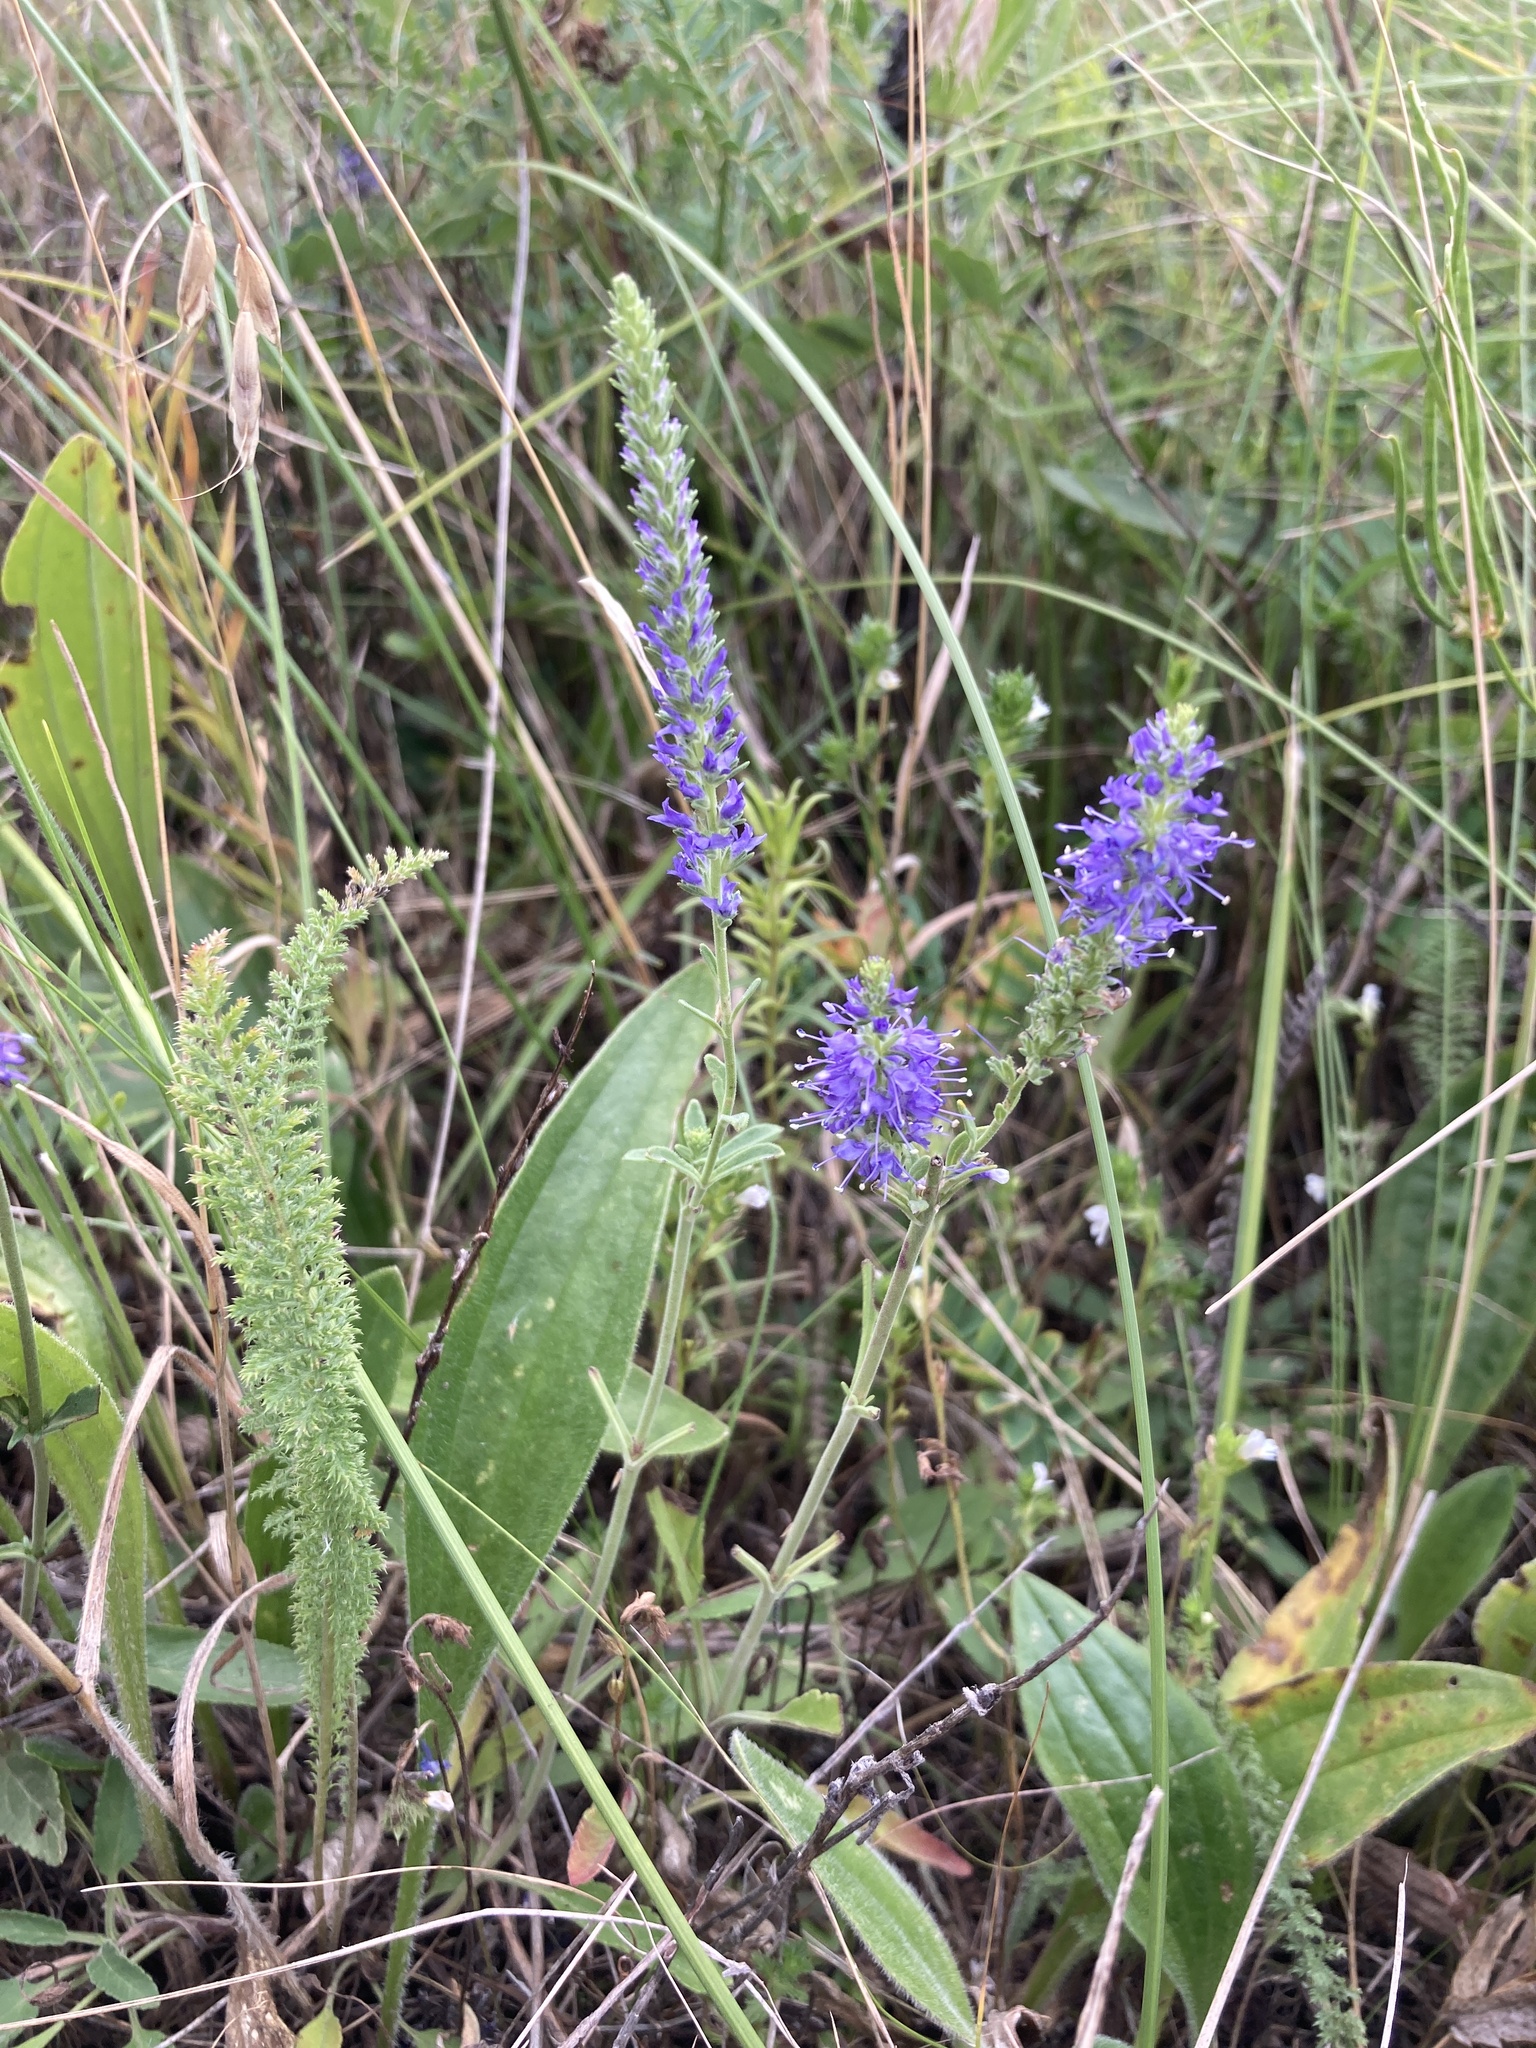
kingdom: Plantae
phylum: Tracheophyta
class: Magnoliopsida
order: Lamiales
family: Plantaginaceae
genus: Veronica
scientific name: Veronica spicata
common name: Spiked speedwell
